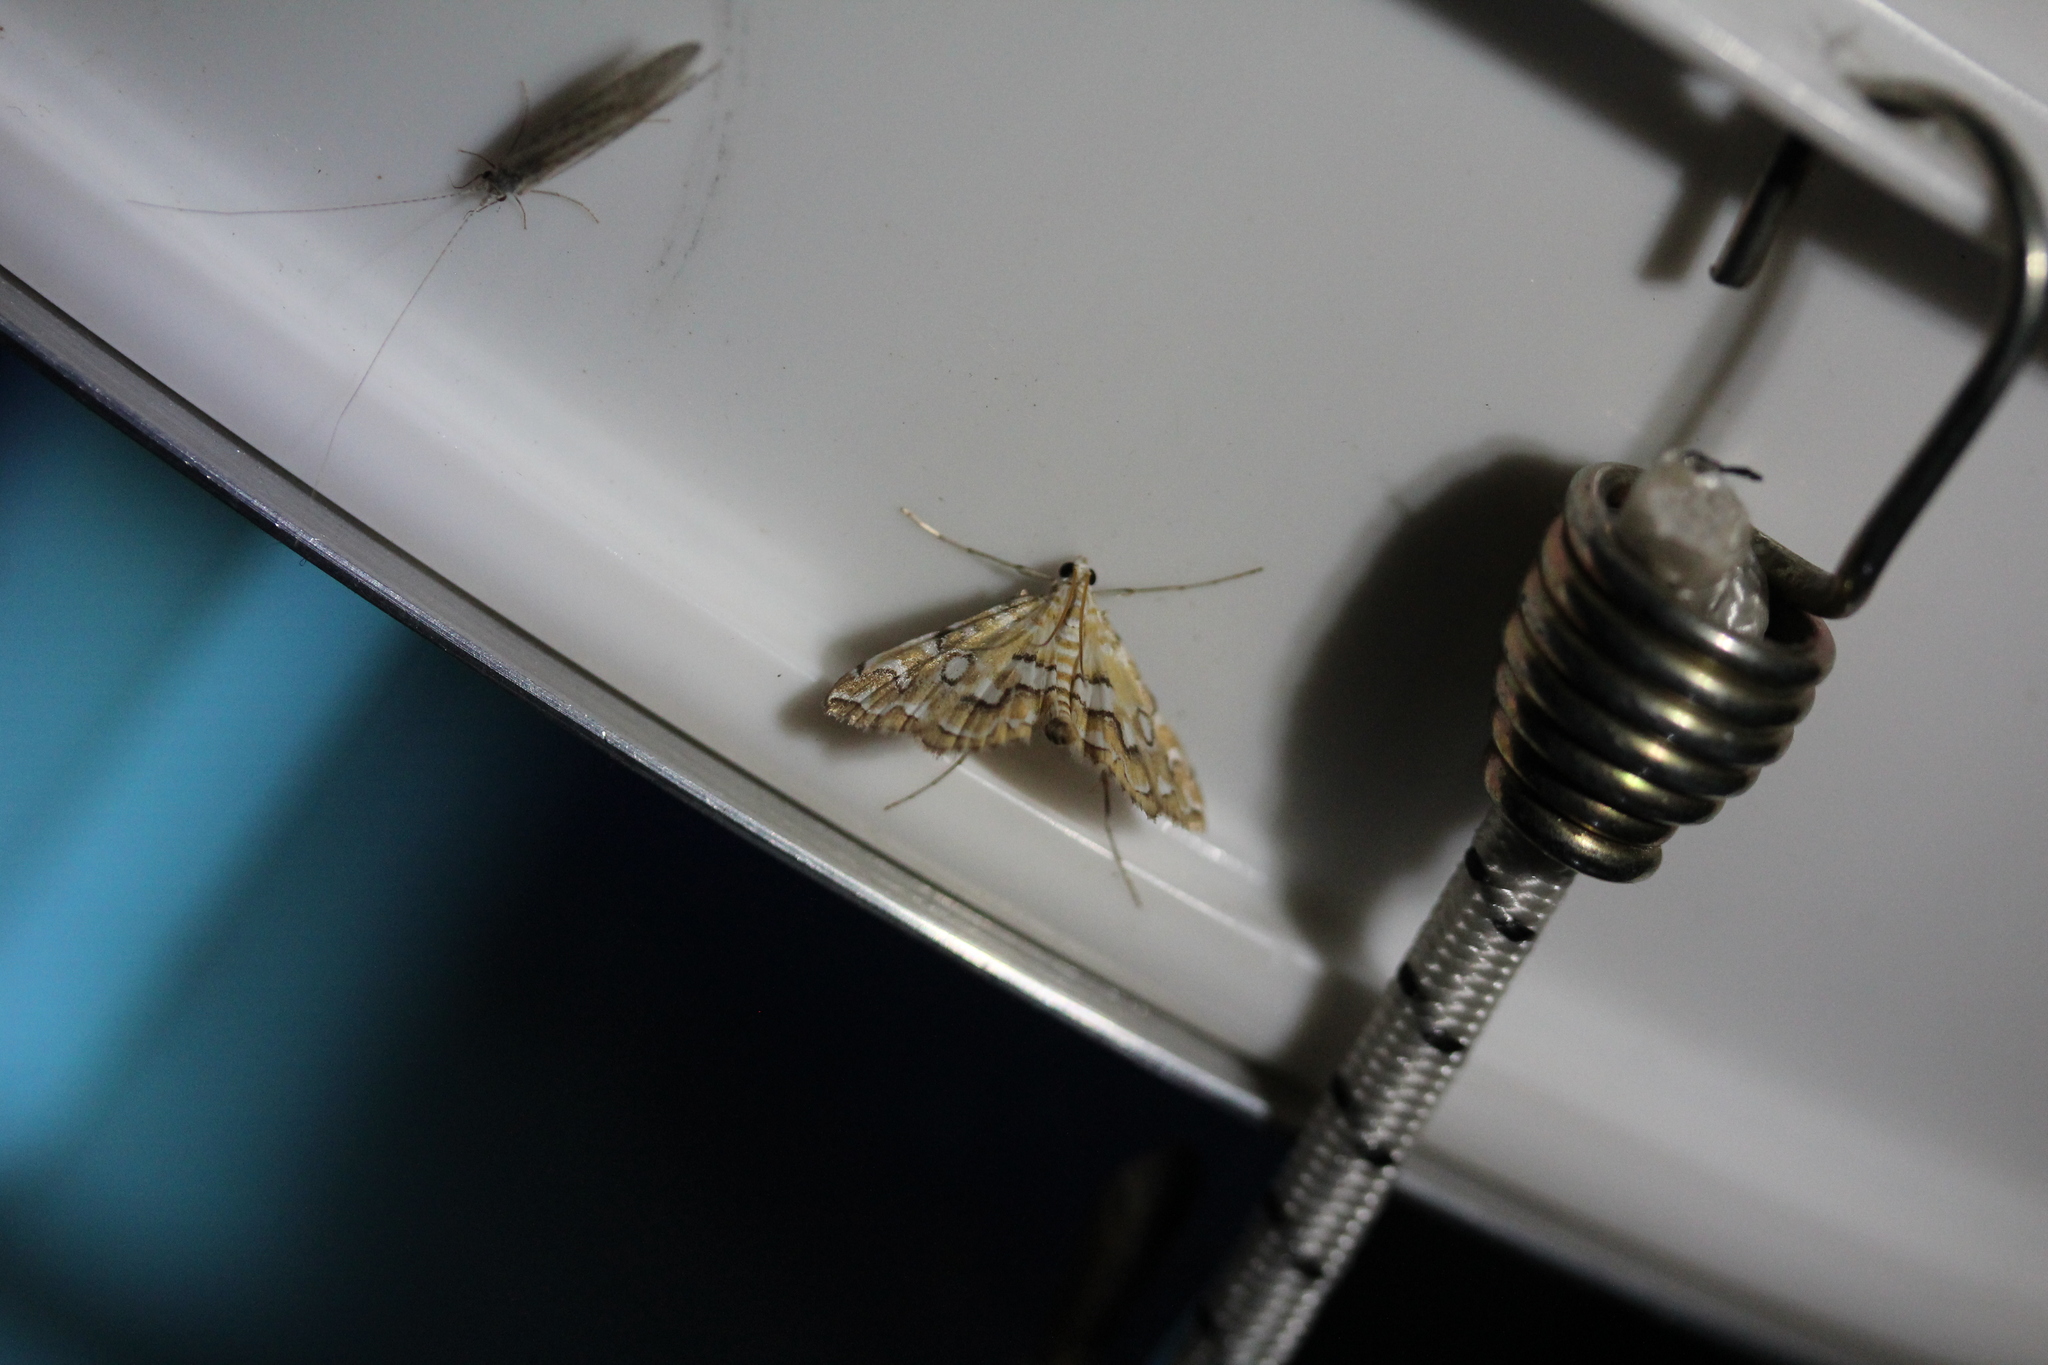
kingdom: Animalia
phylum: Arthropoda
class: Insecta
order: Lepidoptera
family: Crambidae
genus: Elophila
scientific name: Elophila icciusalis
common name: Pondside pyralid moth
